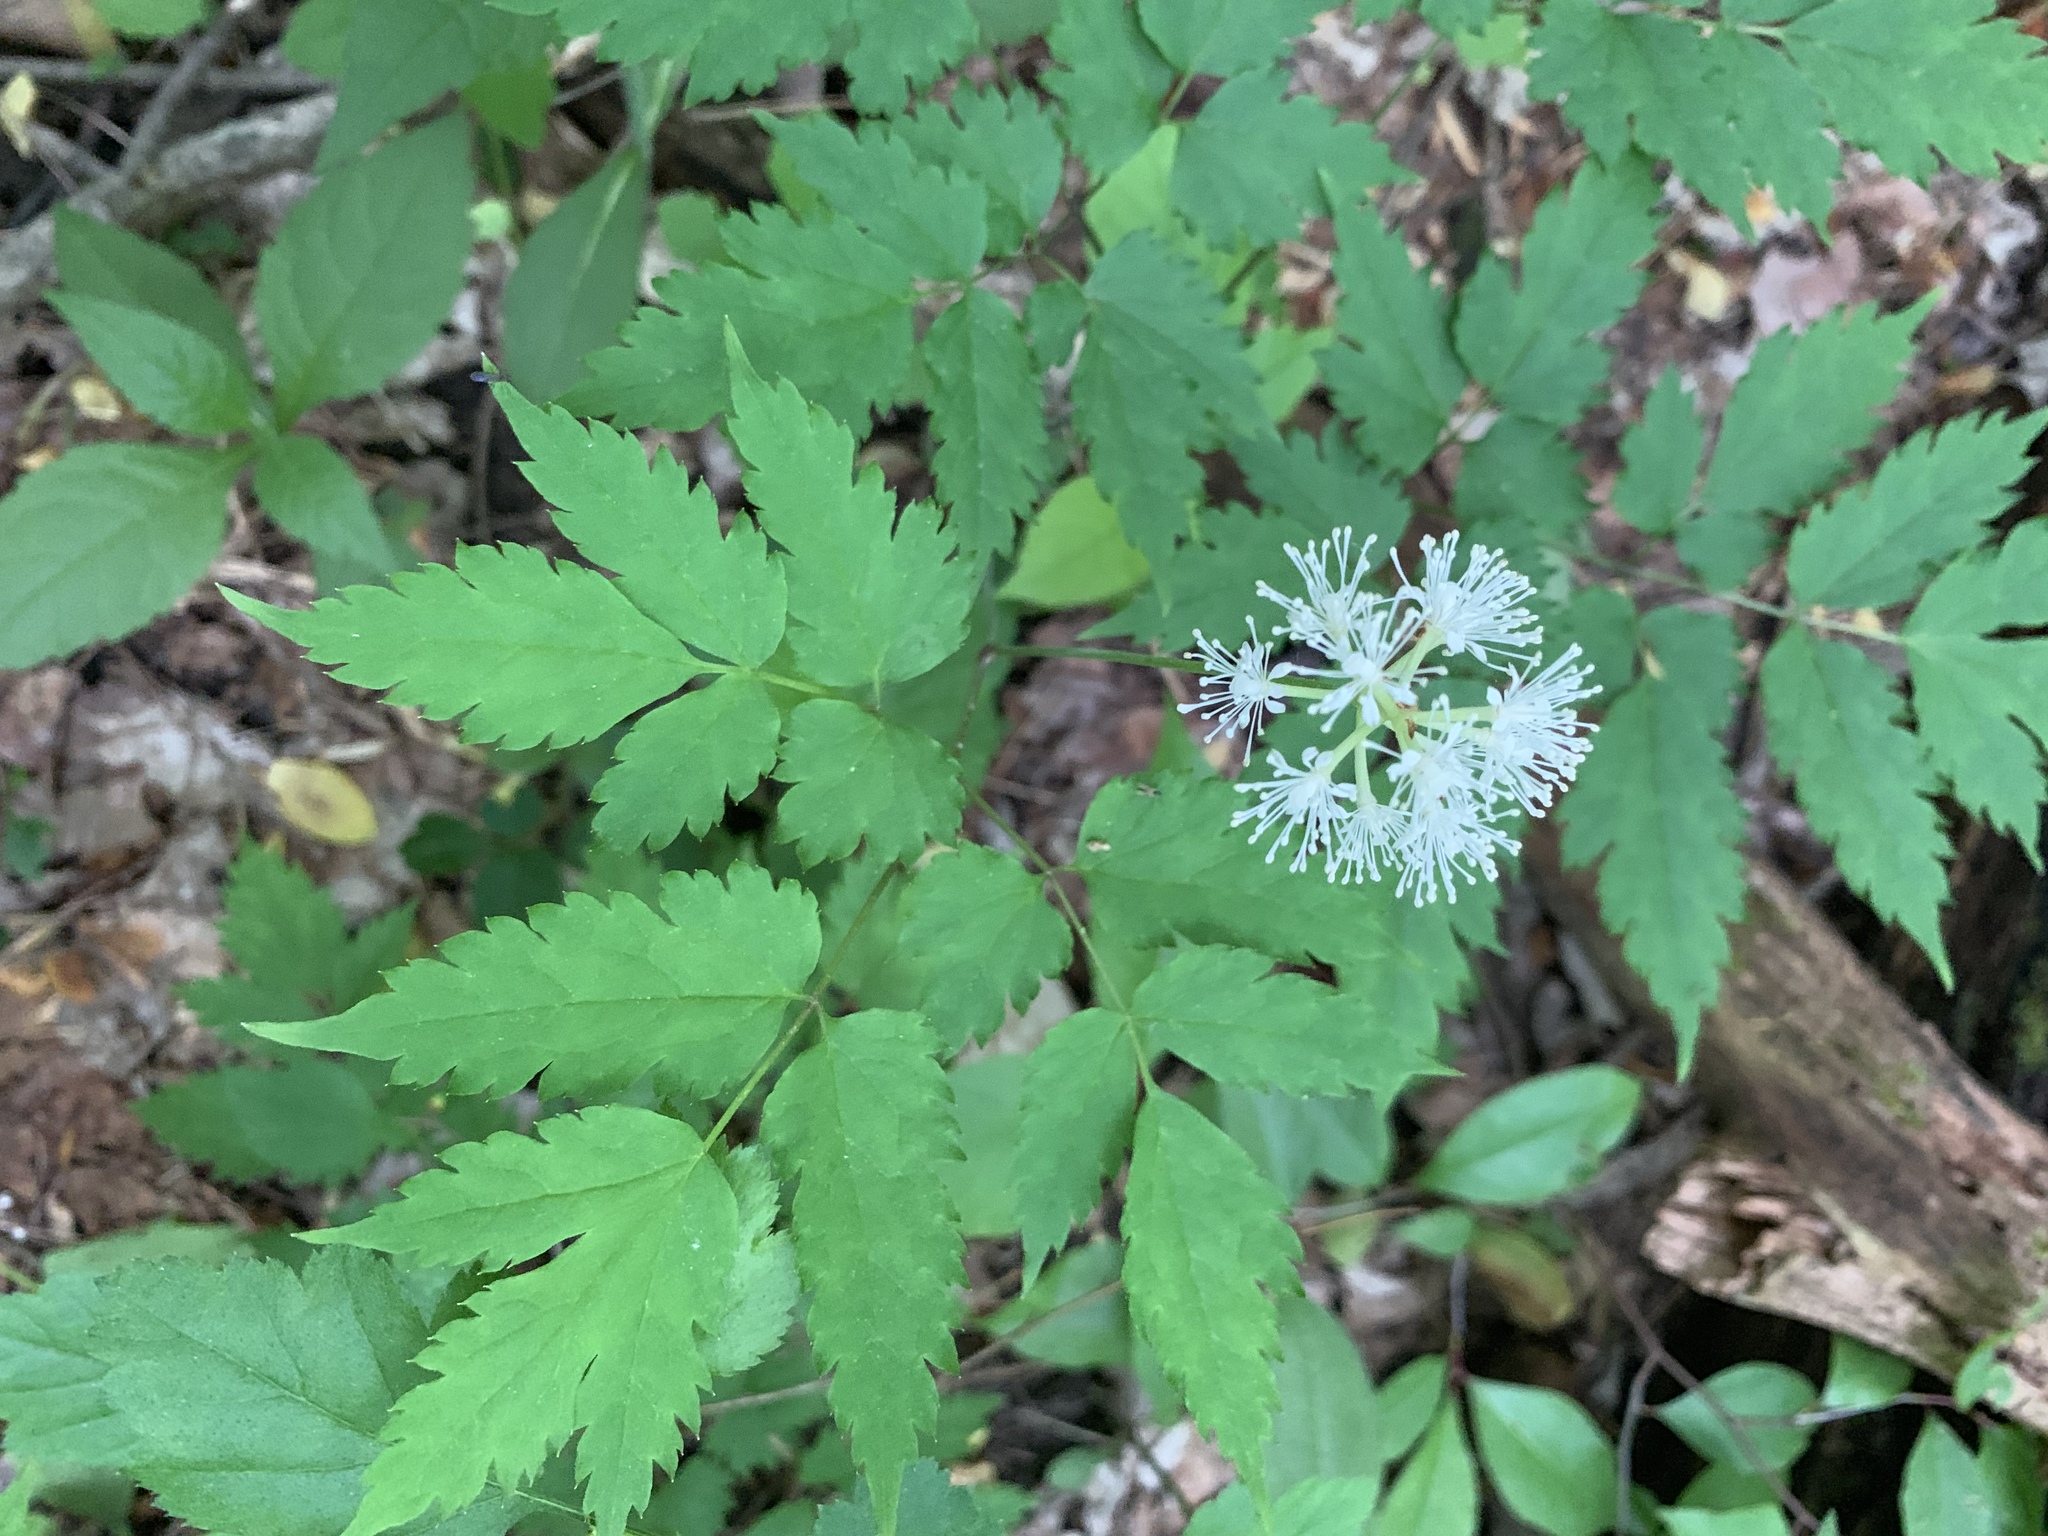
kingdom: Plantae
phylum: Tracheophyta
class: Magnoliopsida
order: Ranunculales
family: Ranunculaceae
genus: Actaea
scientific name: Actaea pachypoda
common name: Doll's-eyes
